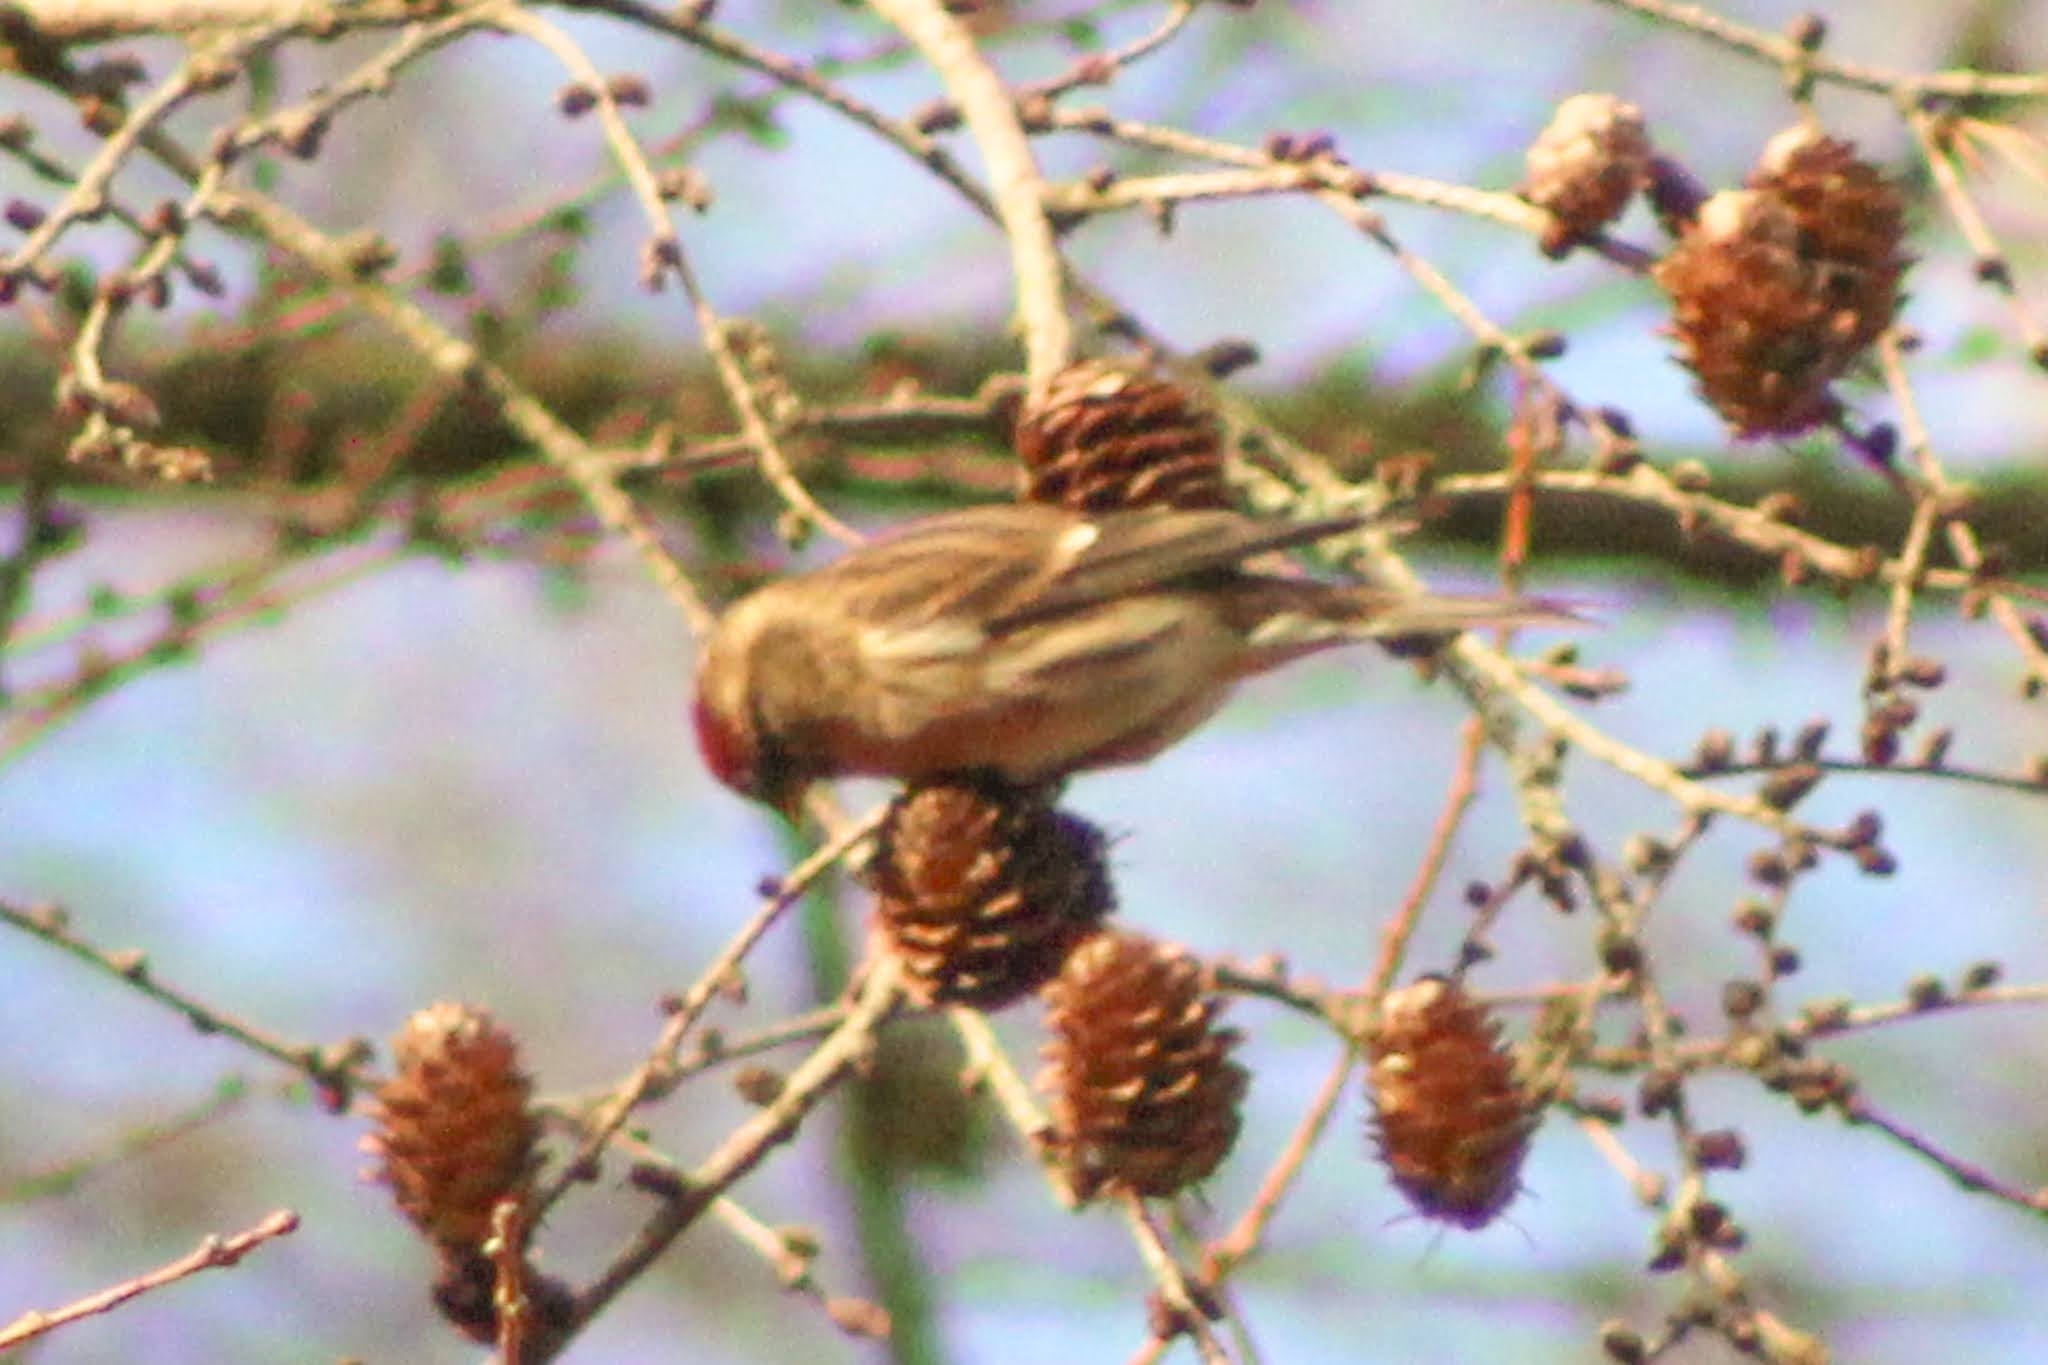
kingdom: Animalia
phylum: Chordata
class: Aves
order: Passeriformes
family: Fringillidae
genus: Acanthis
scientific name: Acanthis flammea
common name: Common redpoll
